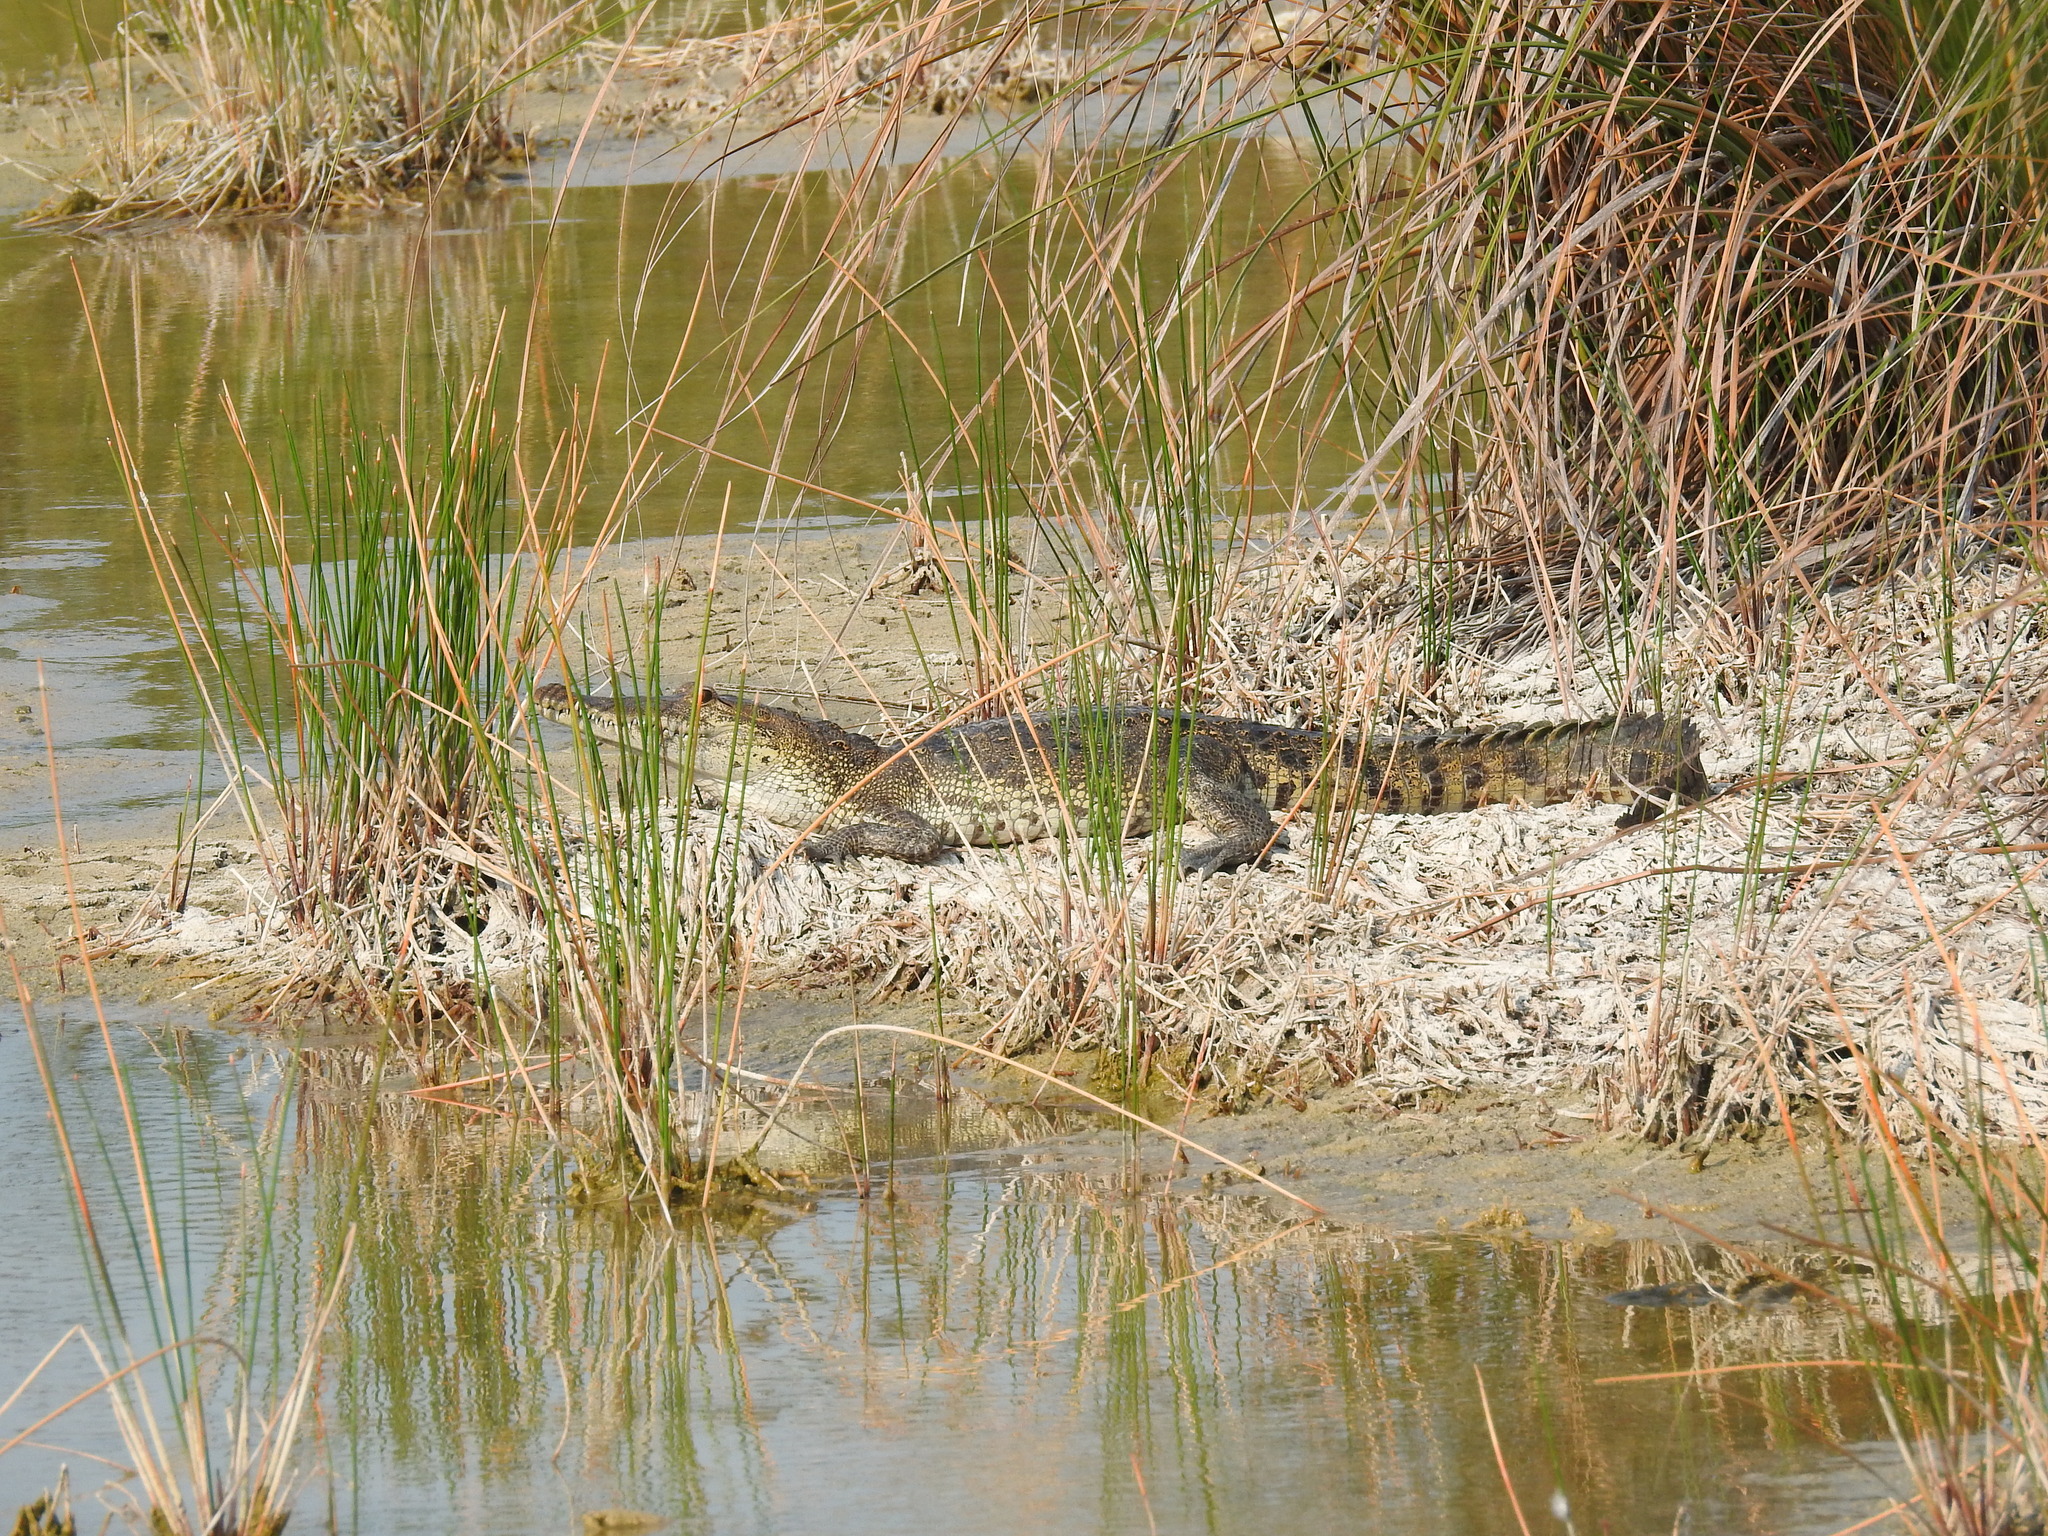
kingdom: Animalia
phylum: Chordata
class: Crocodylia
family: Crocodylidae
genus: Crocodylus
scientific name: Crocodylus moreletii
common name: Morelet's crocodile
